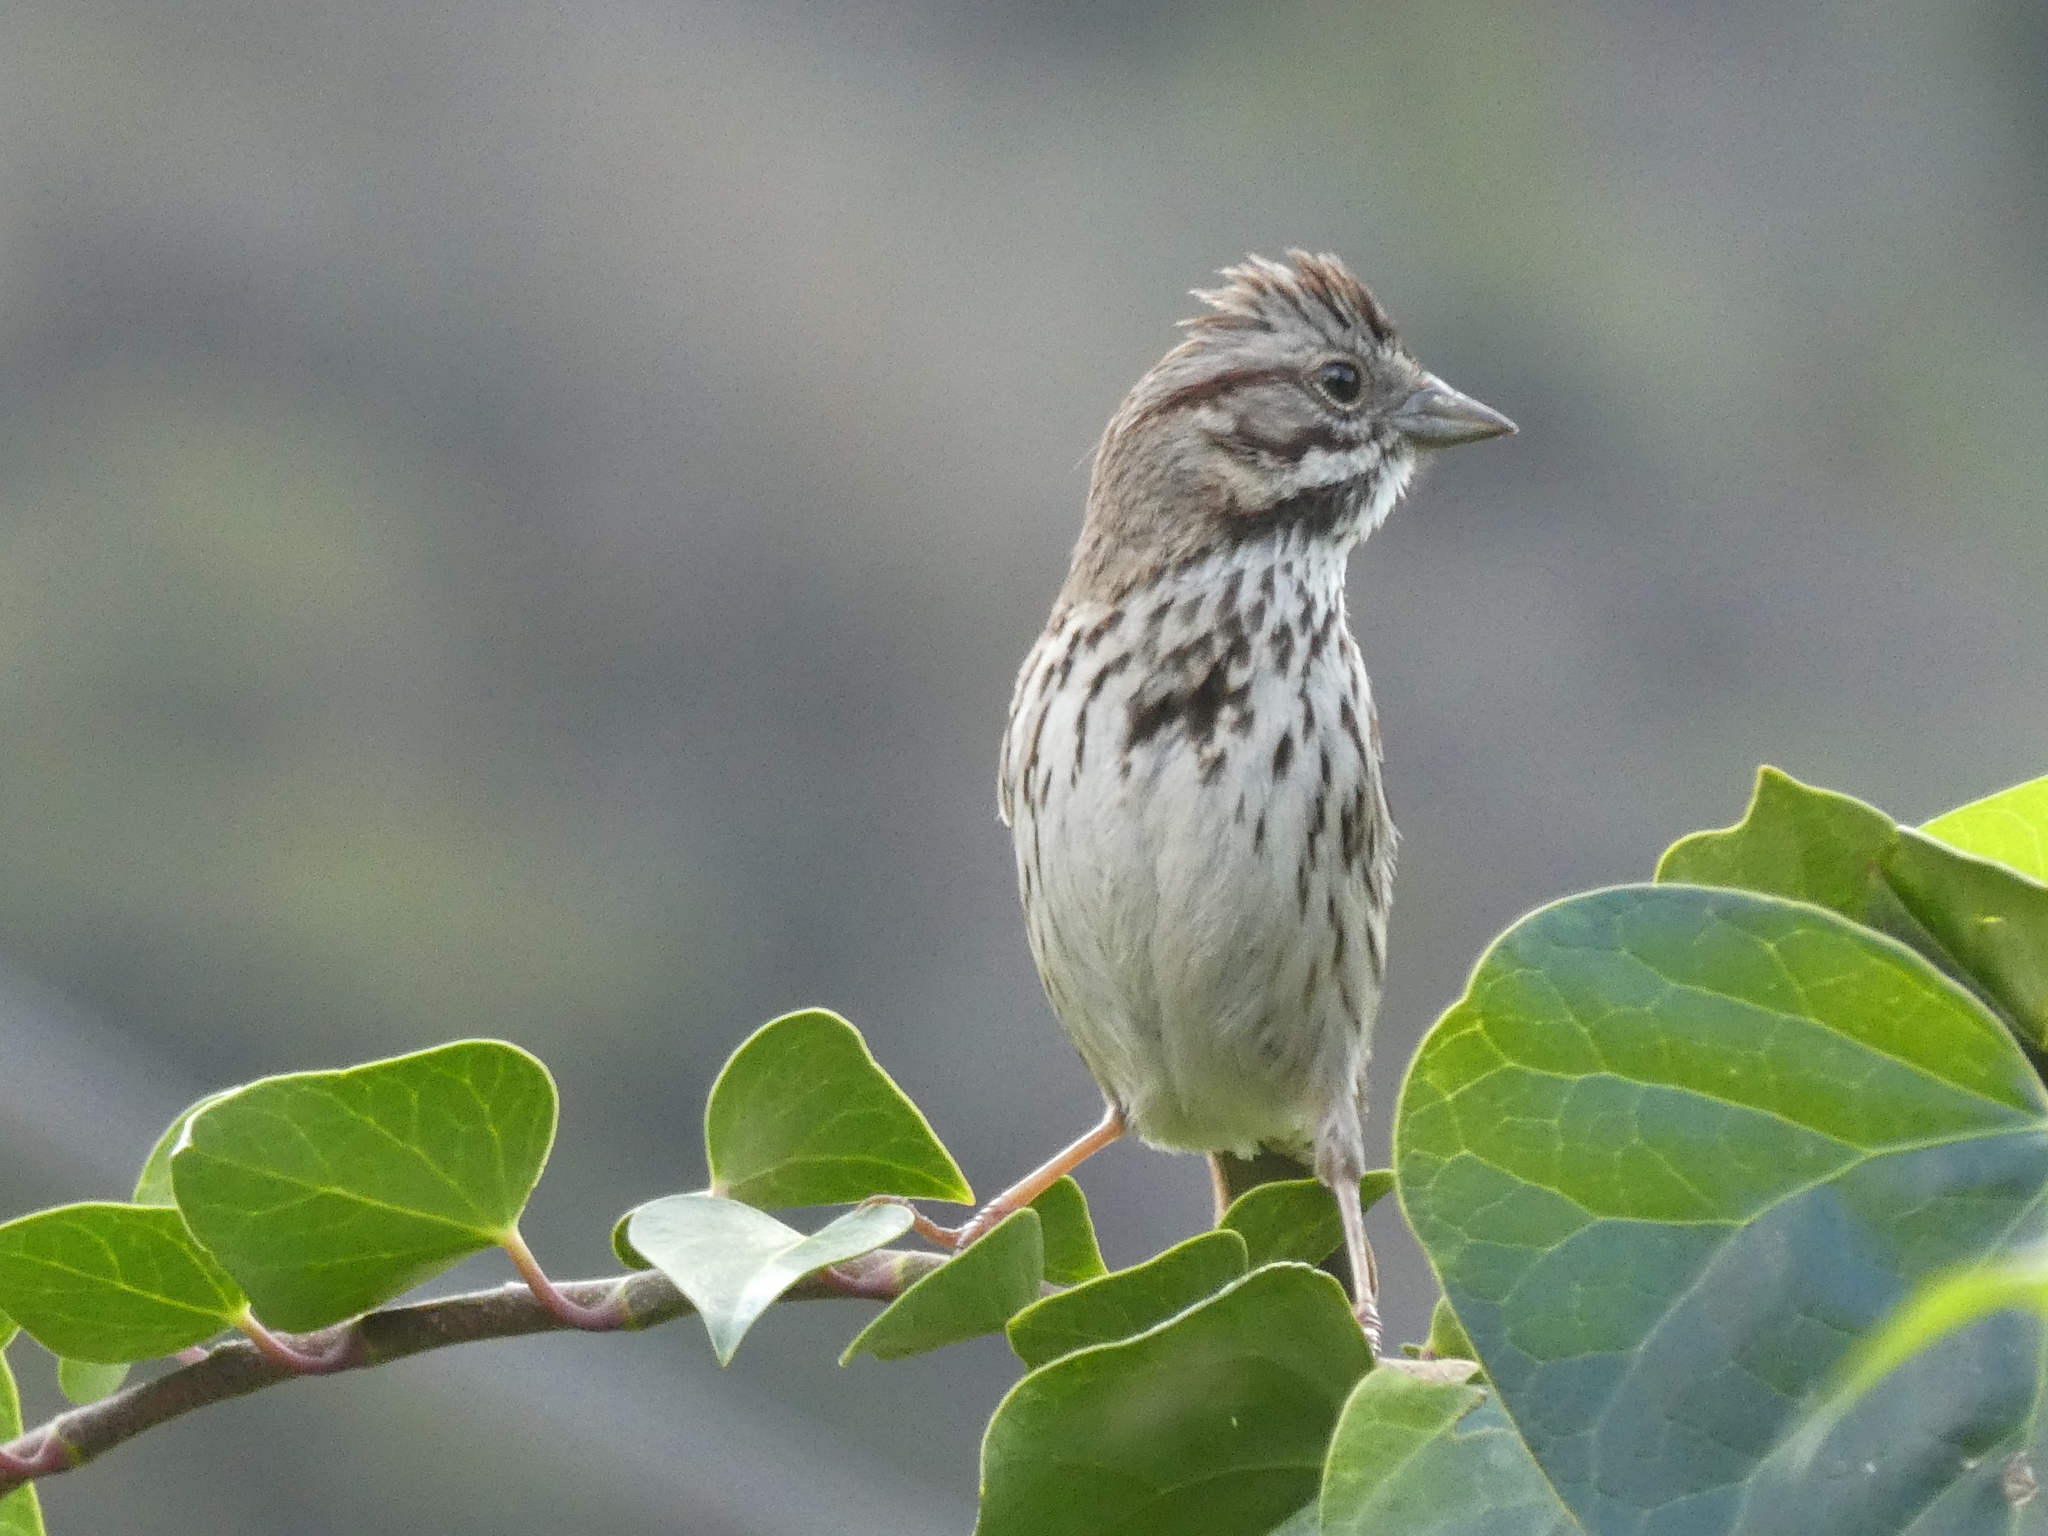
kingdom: Animalia
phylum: Chordata
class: Aves
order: Passeriformes
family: Passerellidae
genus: Melospiza
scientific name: Melospiza melodia
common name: Song sparrow
